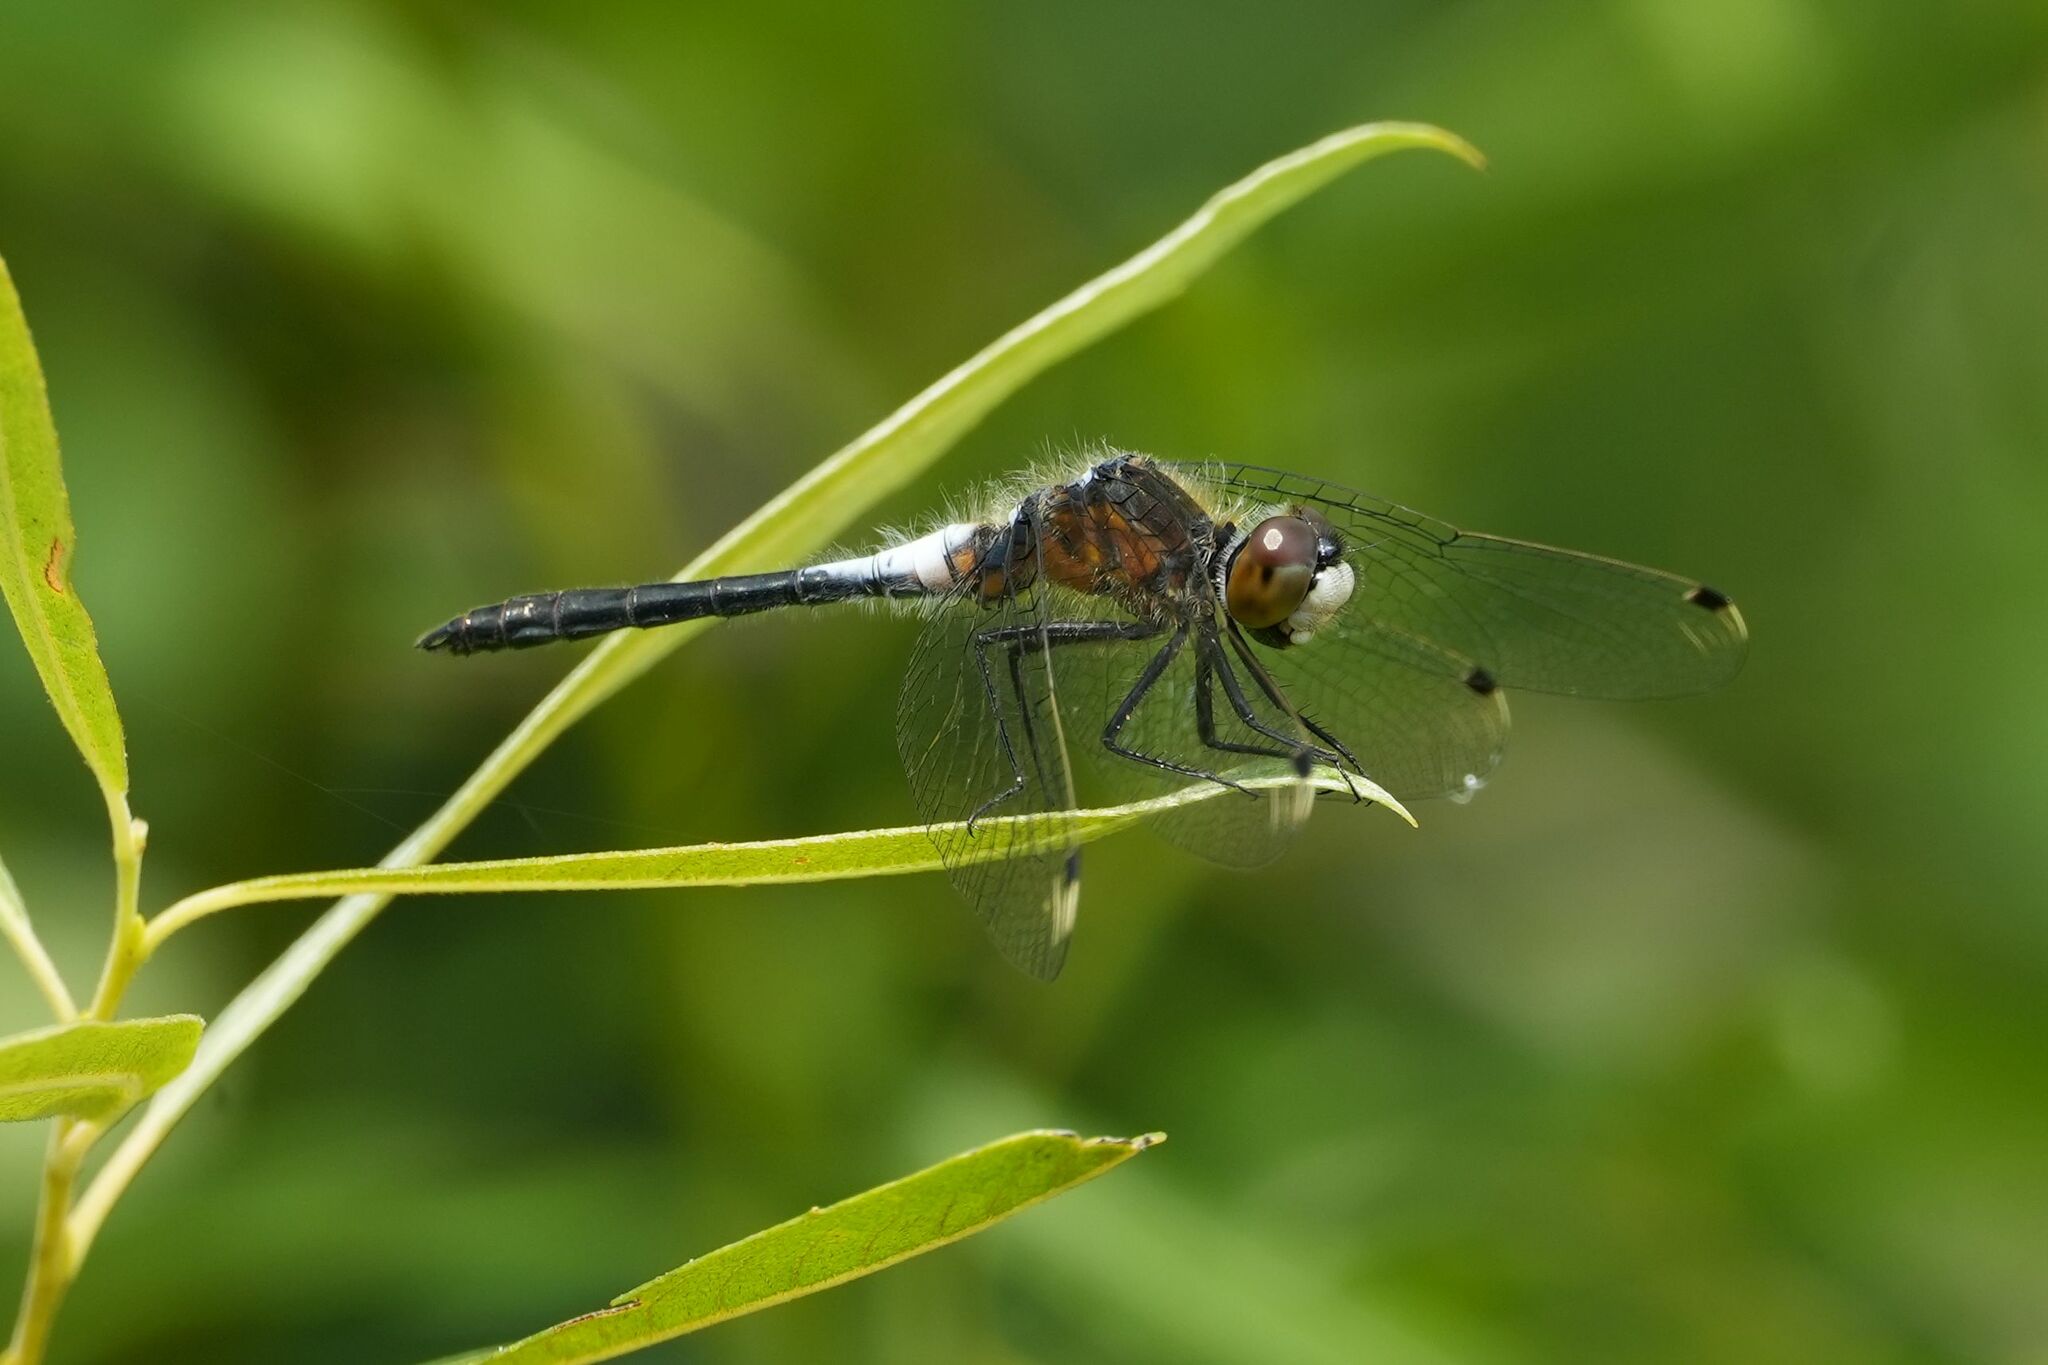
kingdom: Animalia
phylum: Arthropoda
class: Insecta
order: Odonata
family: Libellulidae
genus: Leucorrhinia
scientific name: Leucorrhinia frigida
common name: Frosted whiteface
